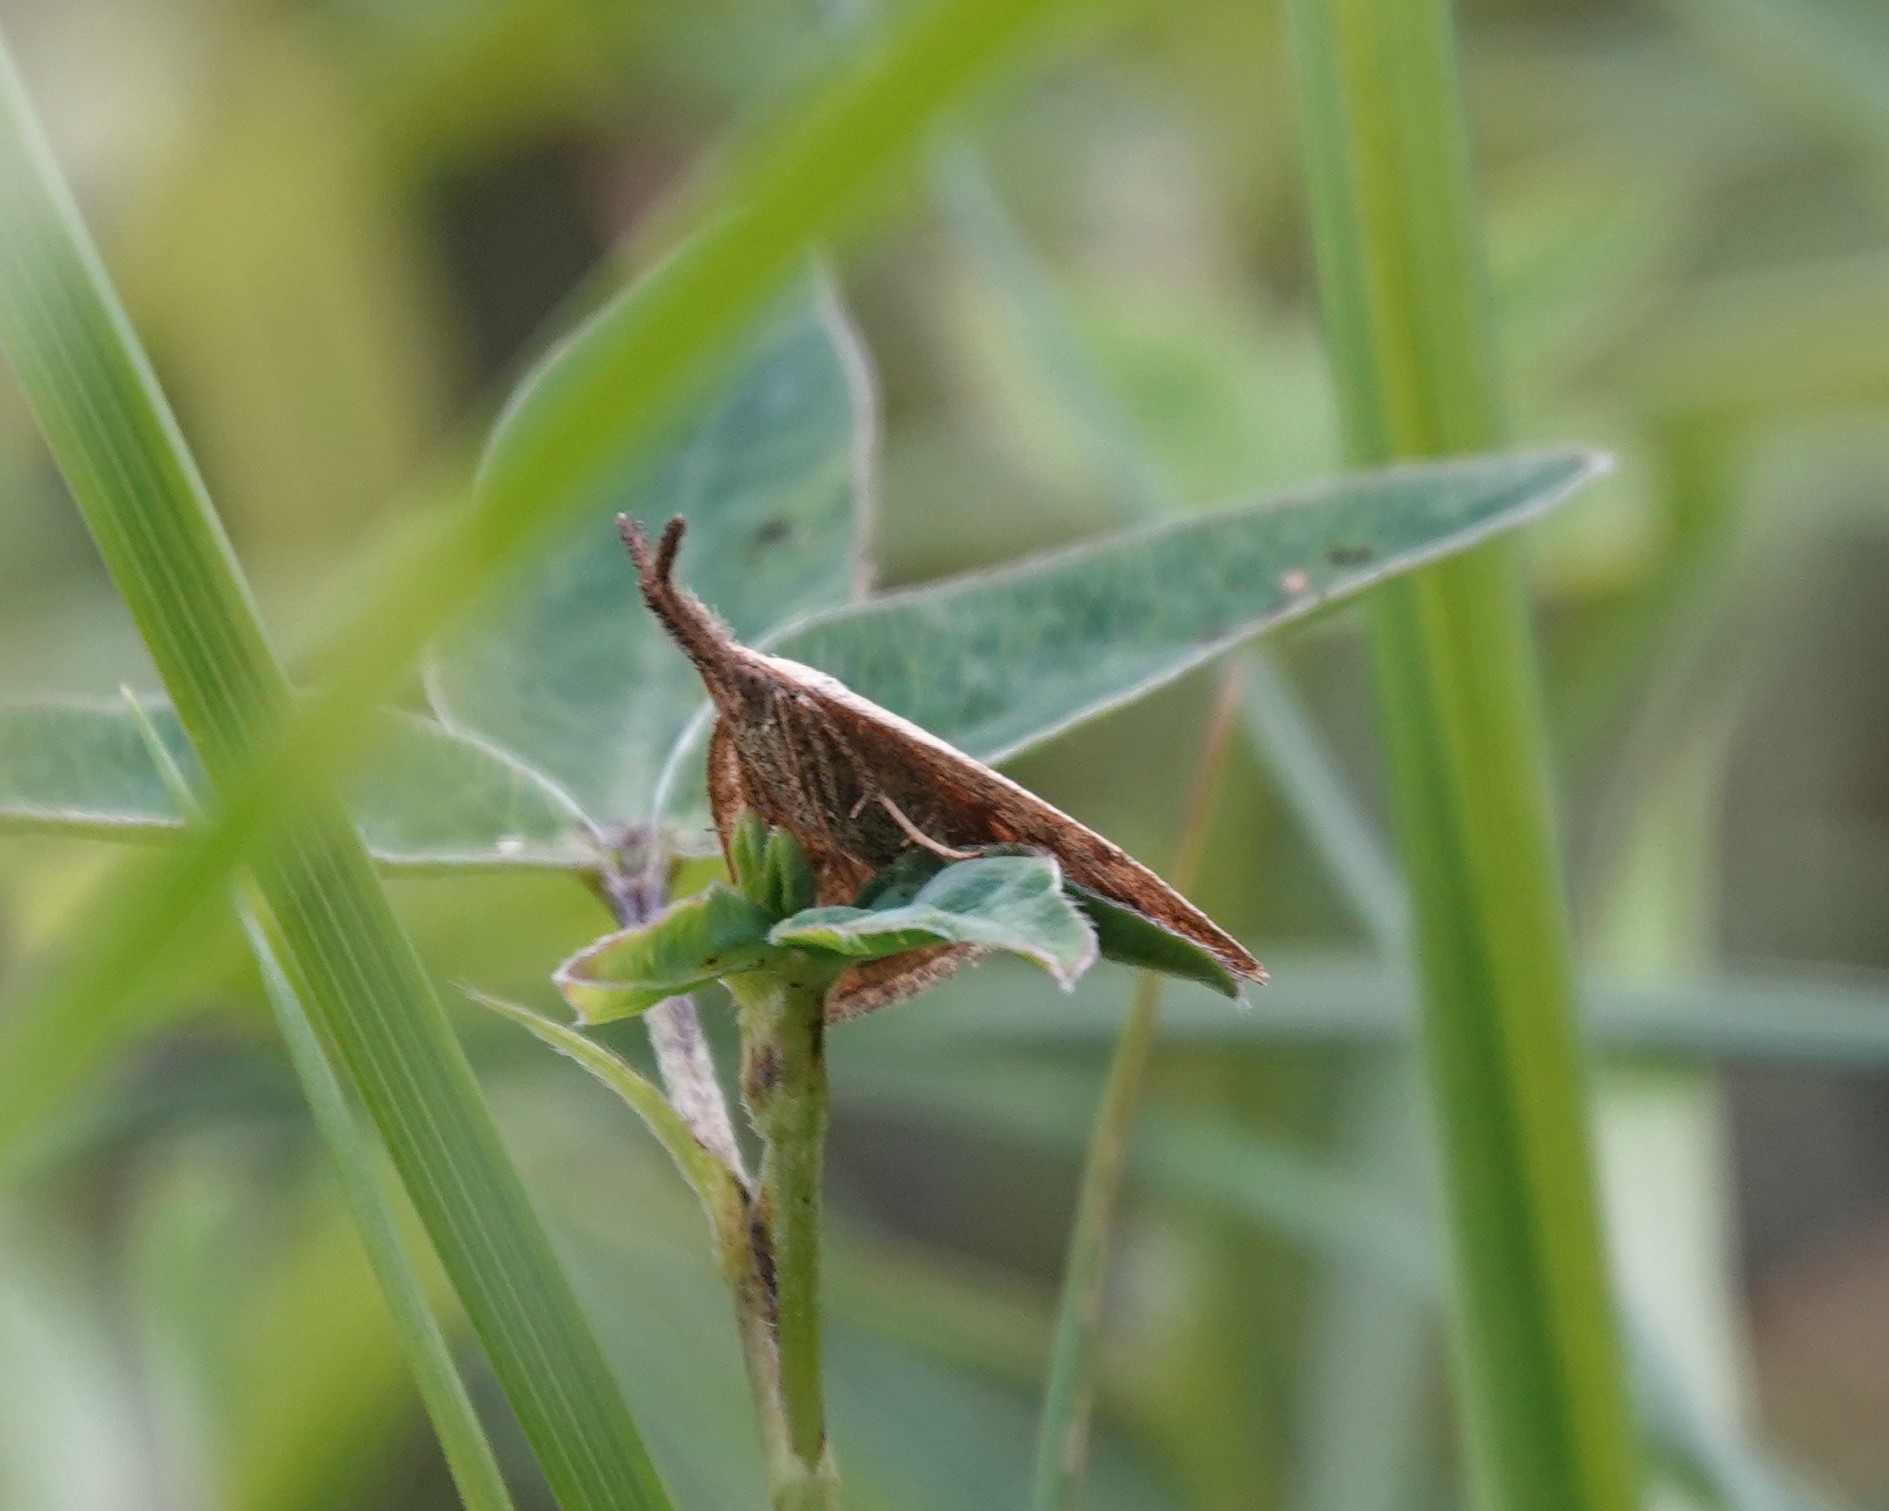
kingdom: Animalia
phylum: Arthropoda
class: Insecta
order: Lepidoptera
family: Erebidae
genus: Polypogon
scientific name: Polypogon tentacularia
